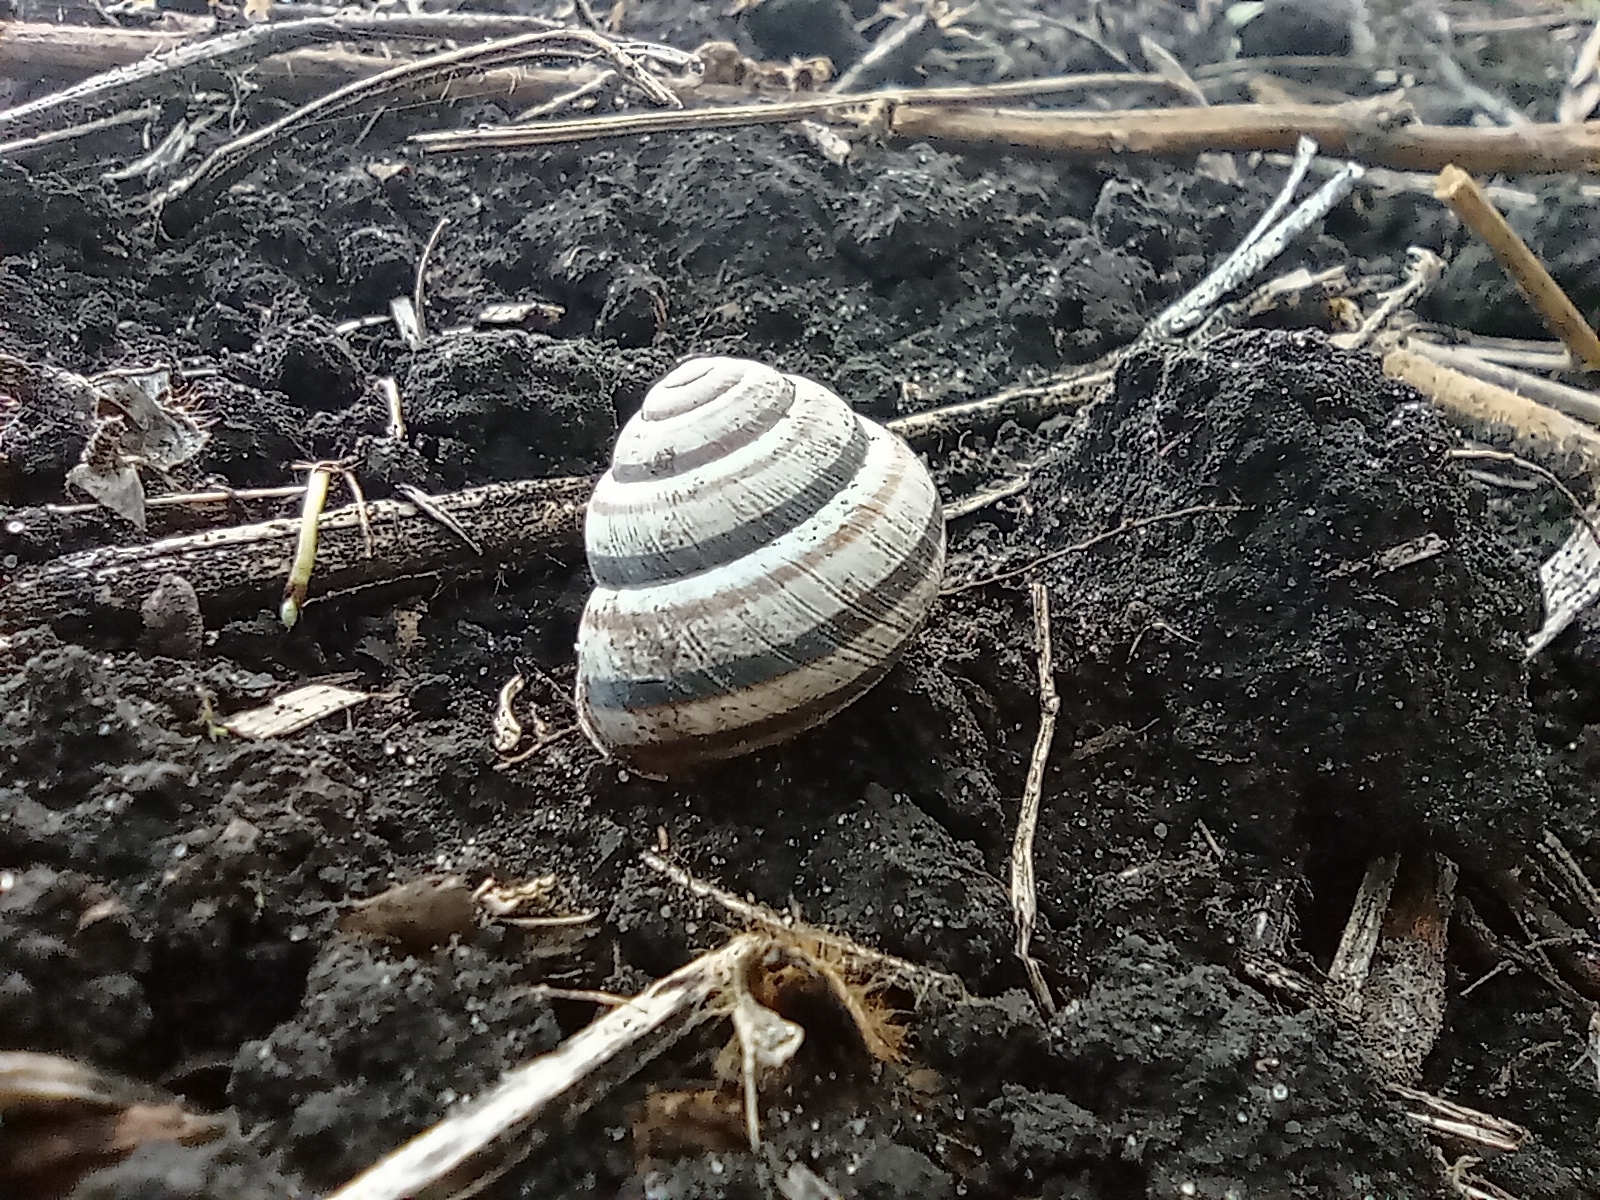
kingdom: Animalia
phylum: Mollusca
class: Gastropoda
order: Stylommatophora
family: Helicidae
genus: Caucasotachea
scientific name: Caucasotachea vindobonensis
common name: European helicid land snail
